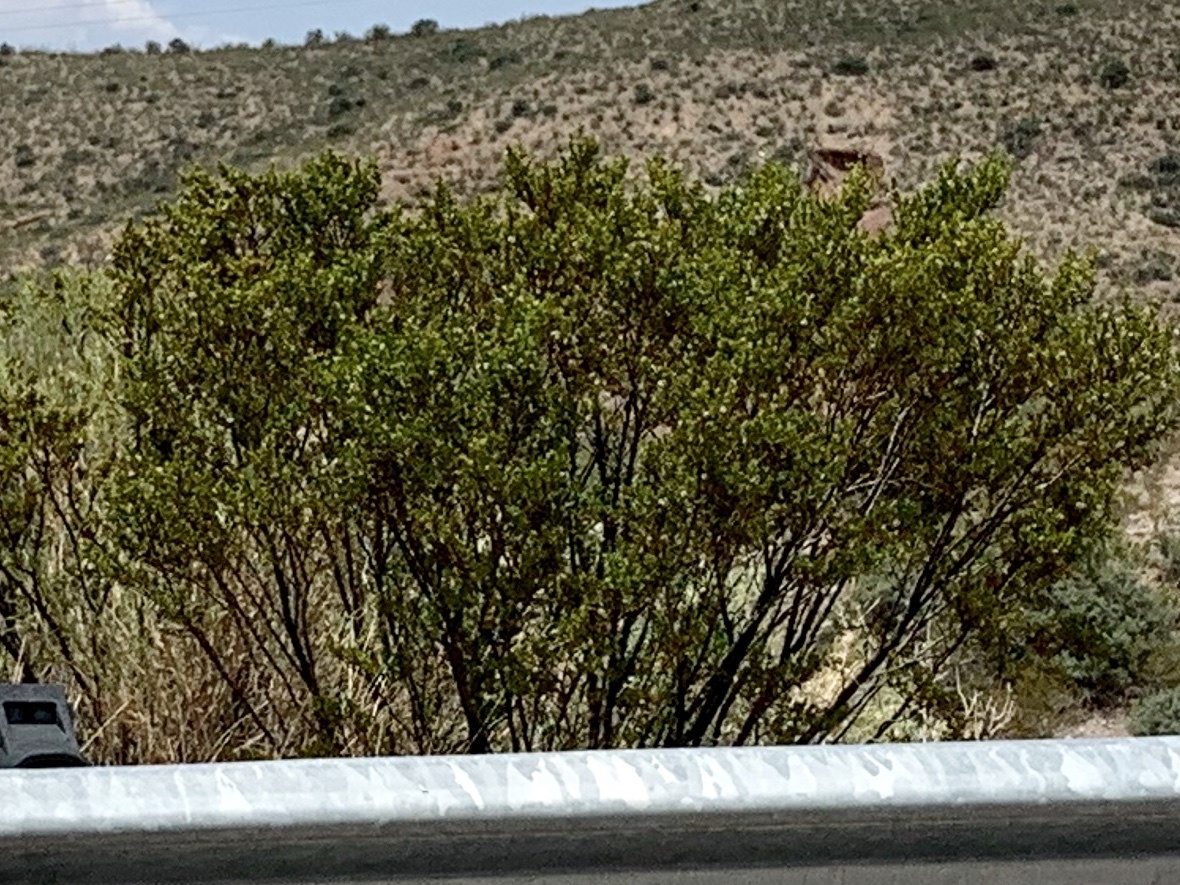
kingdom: Plantae
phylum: Tracheophyta
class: Magnoliopsida
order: Zygophyllales
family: Zygophyllaceae
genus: Larrea
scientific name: Larrea tridentata
